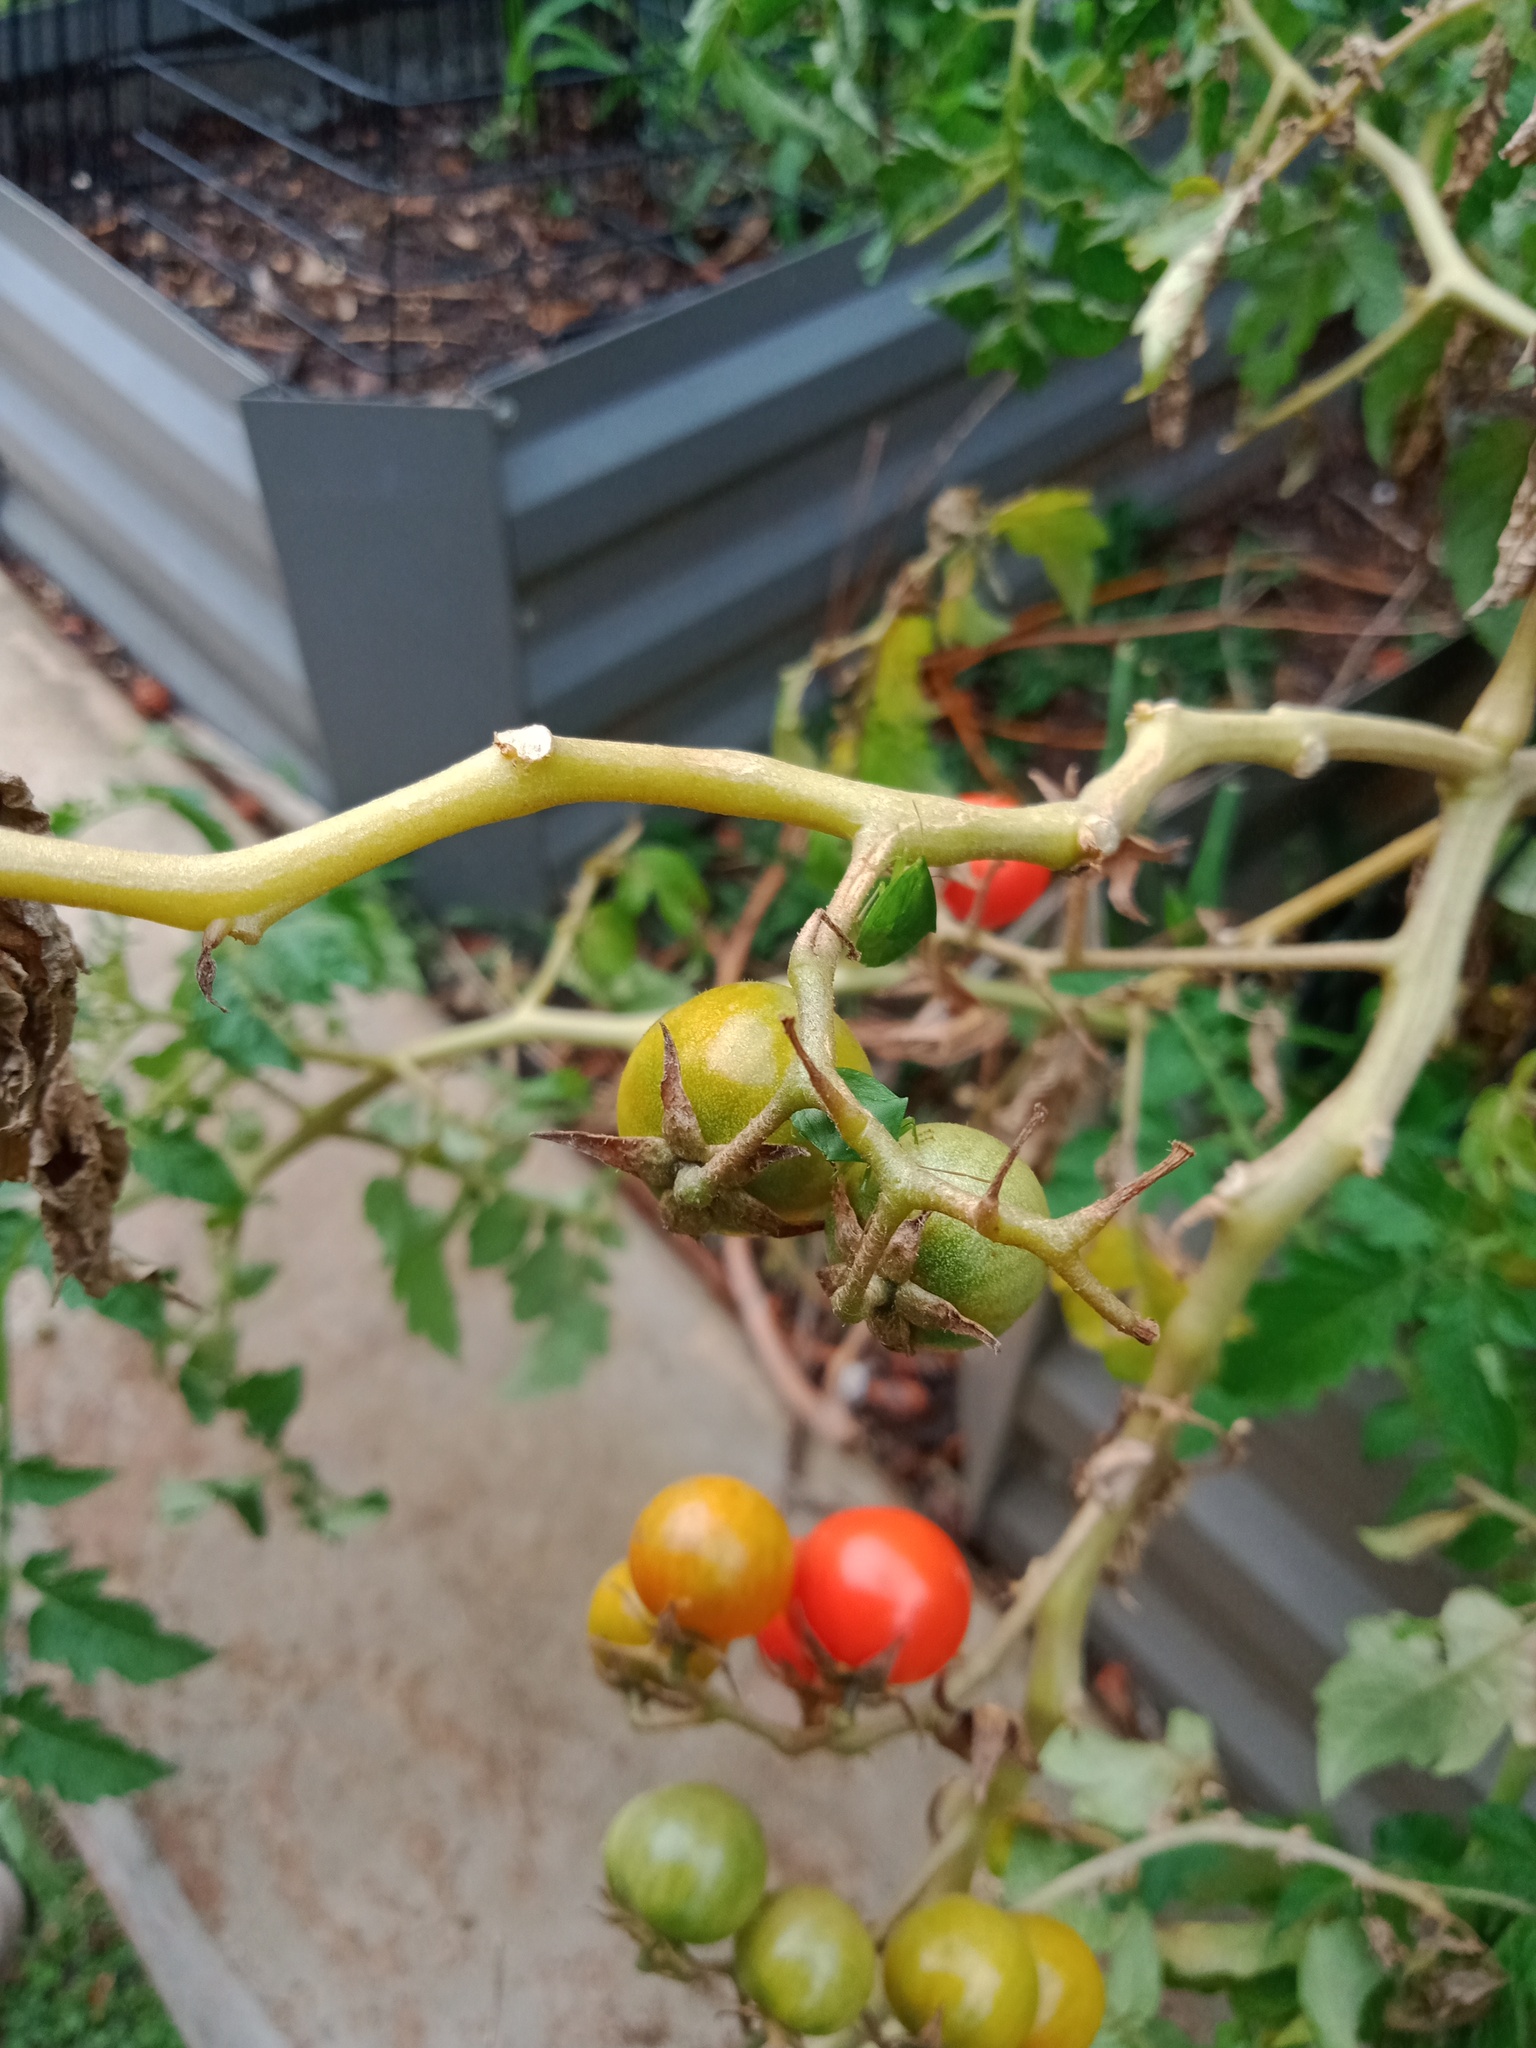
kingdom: Animalia
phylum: Arthropoda
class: Insecta
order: Hemiptera
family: Pentatomidae
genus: Cuspicona
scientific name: Cuspicona simplex
